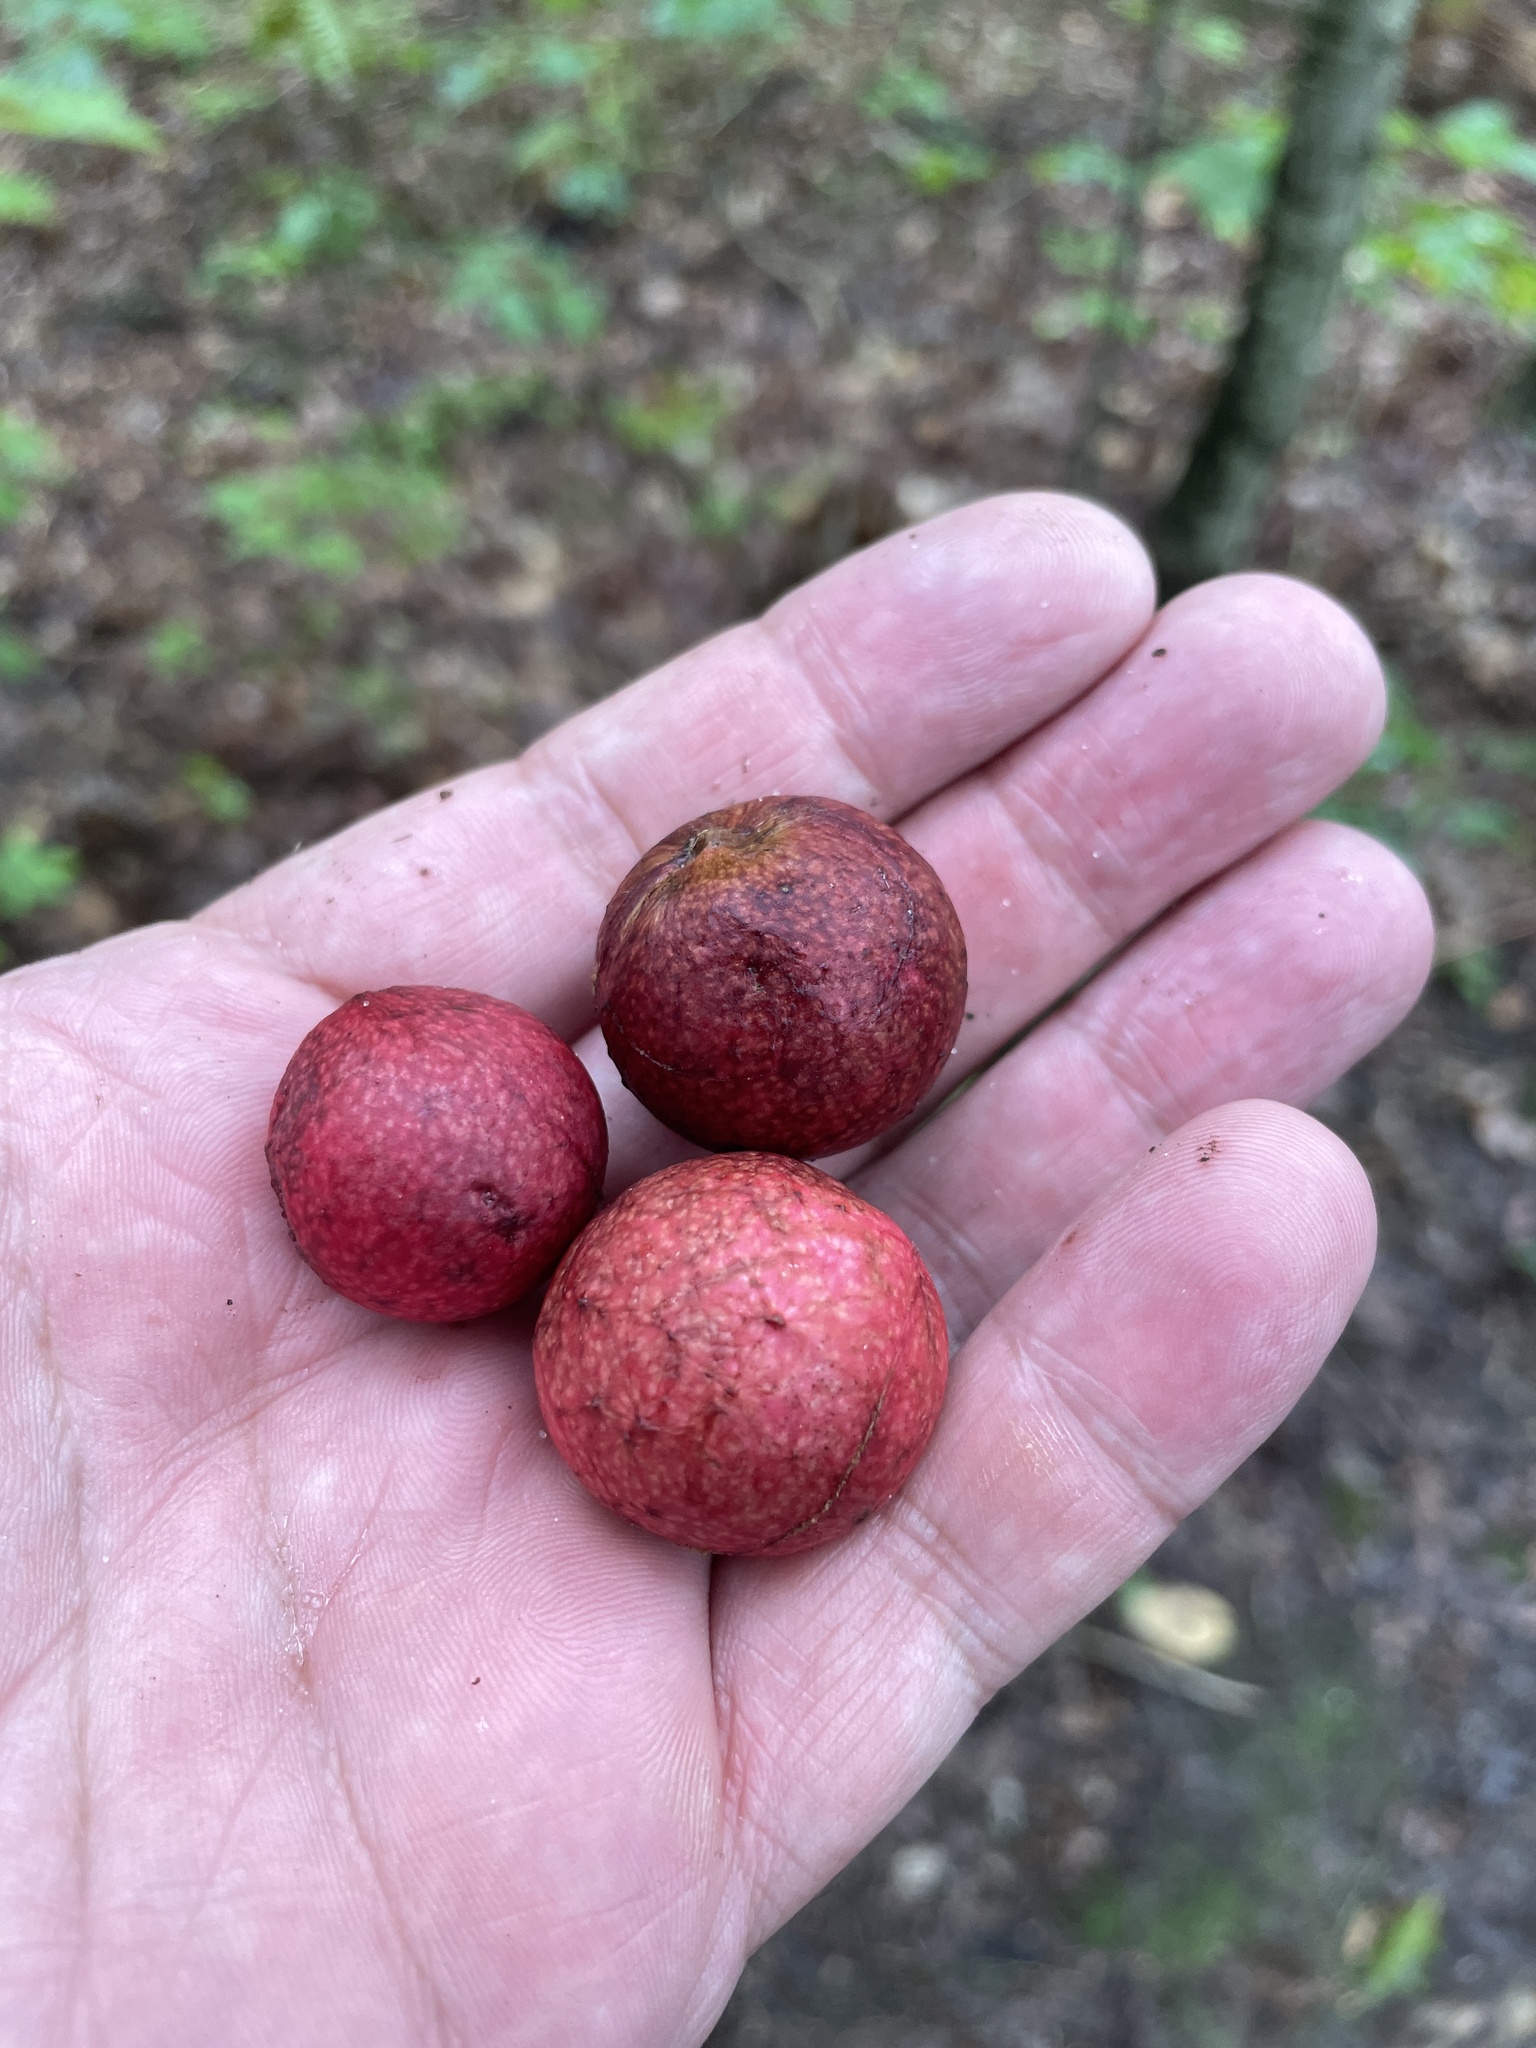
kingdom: Animalia
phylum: Arthropoda
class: Insecta
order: Hymenoptera
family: Cynipidae
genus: Amphibolips
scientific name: Amphibolips
